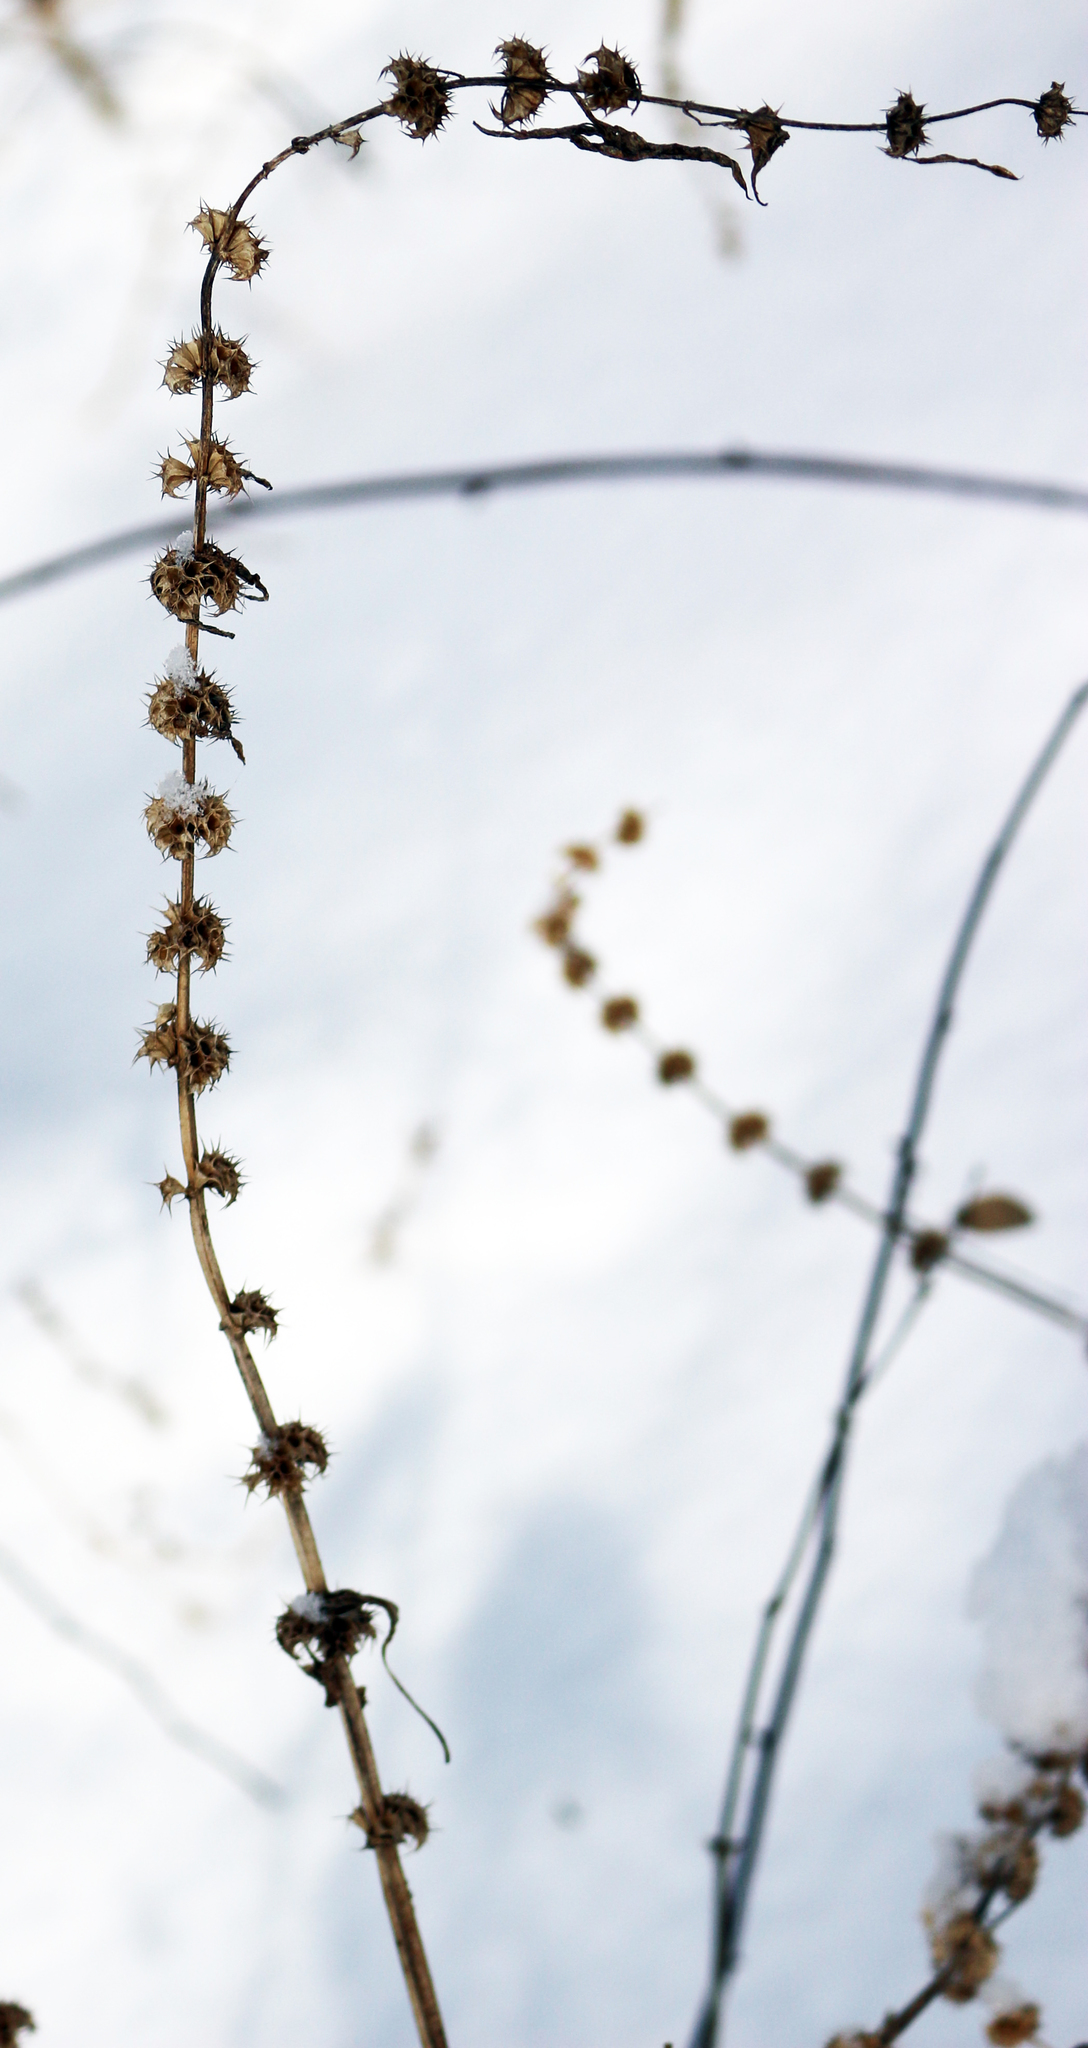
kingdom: Plantae
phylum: Tracheophyta
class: Magnoliopsida
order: Lamiales
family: Lamiaceae
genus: Leonurus
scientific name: Leonurus cardiaca
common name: Motherwort
